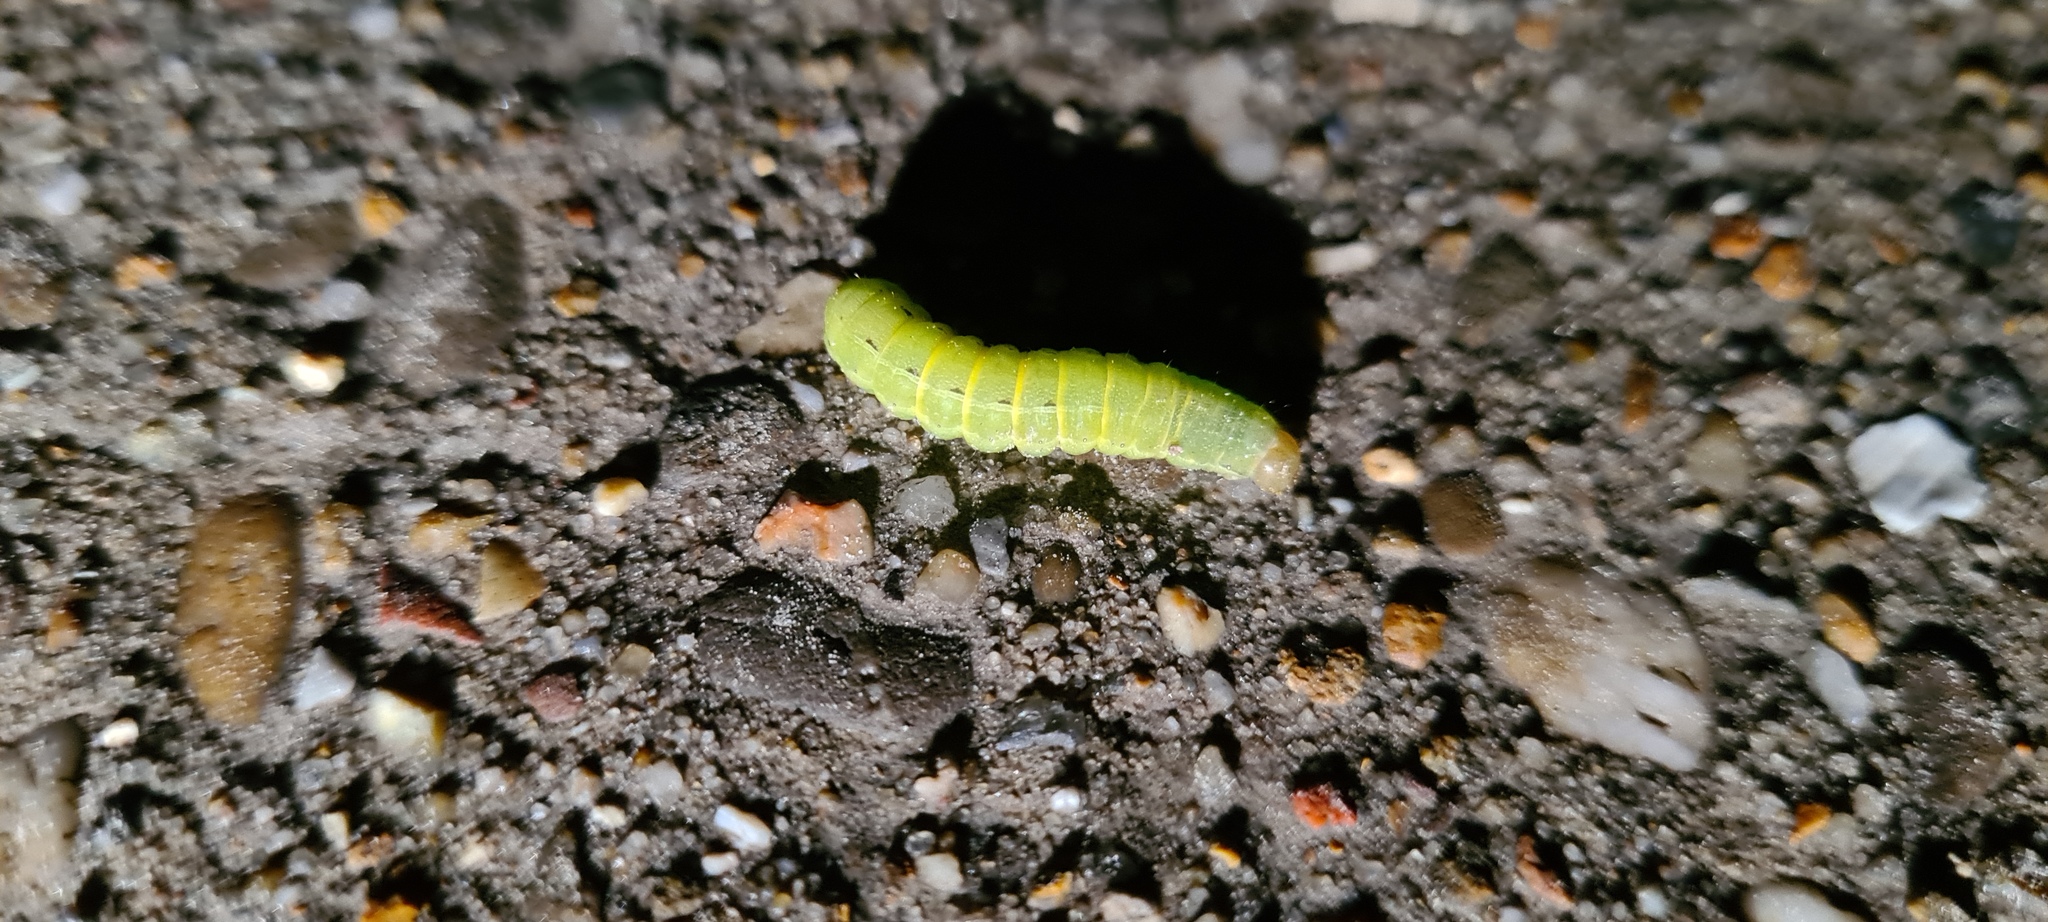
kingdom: Animalia
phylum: Arthropoda
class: Insecta
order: Lepidoptera
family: Noctuidae
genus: Noctua
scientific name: Noctua pronuba
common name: Large yellow underwing
